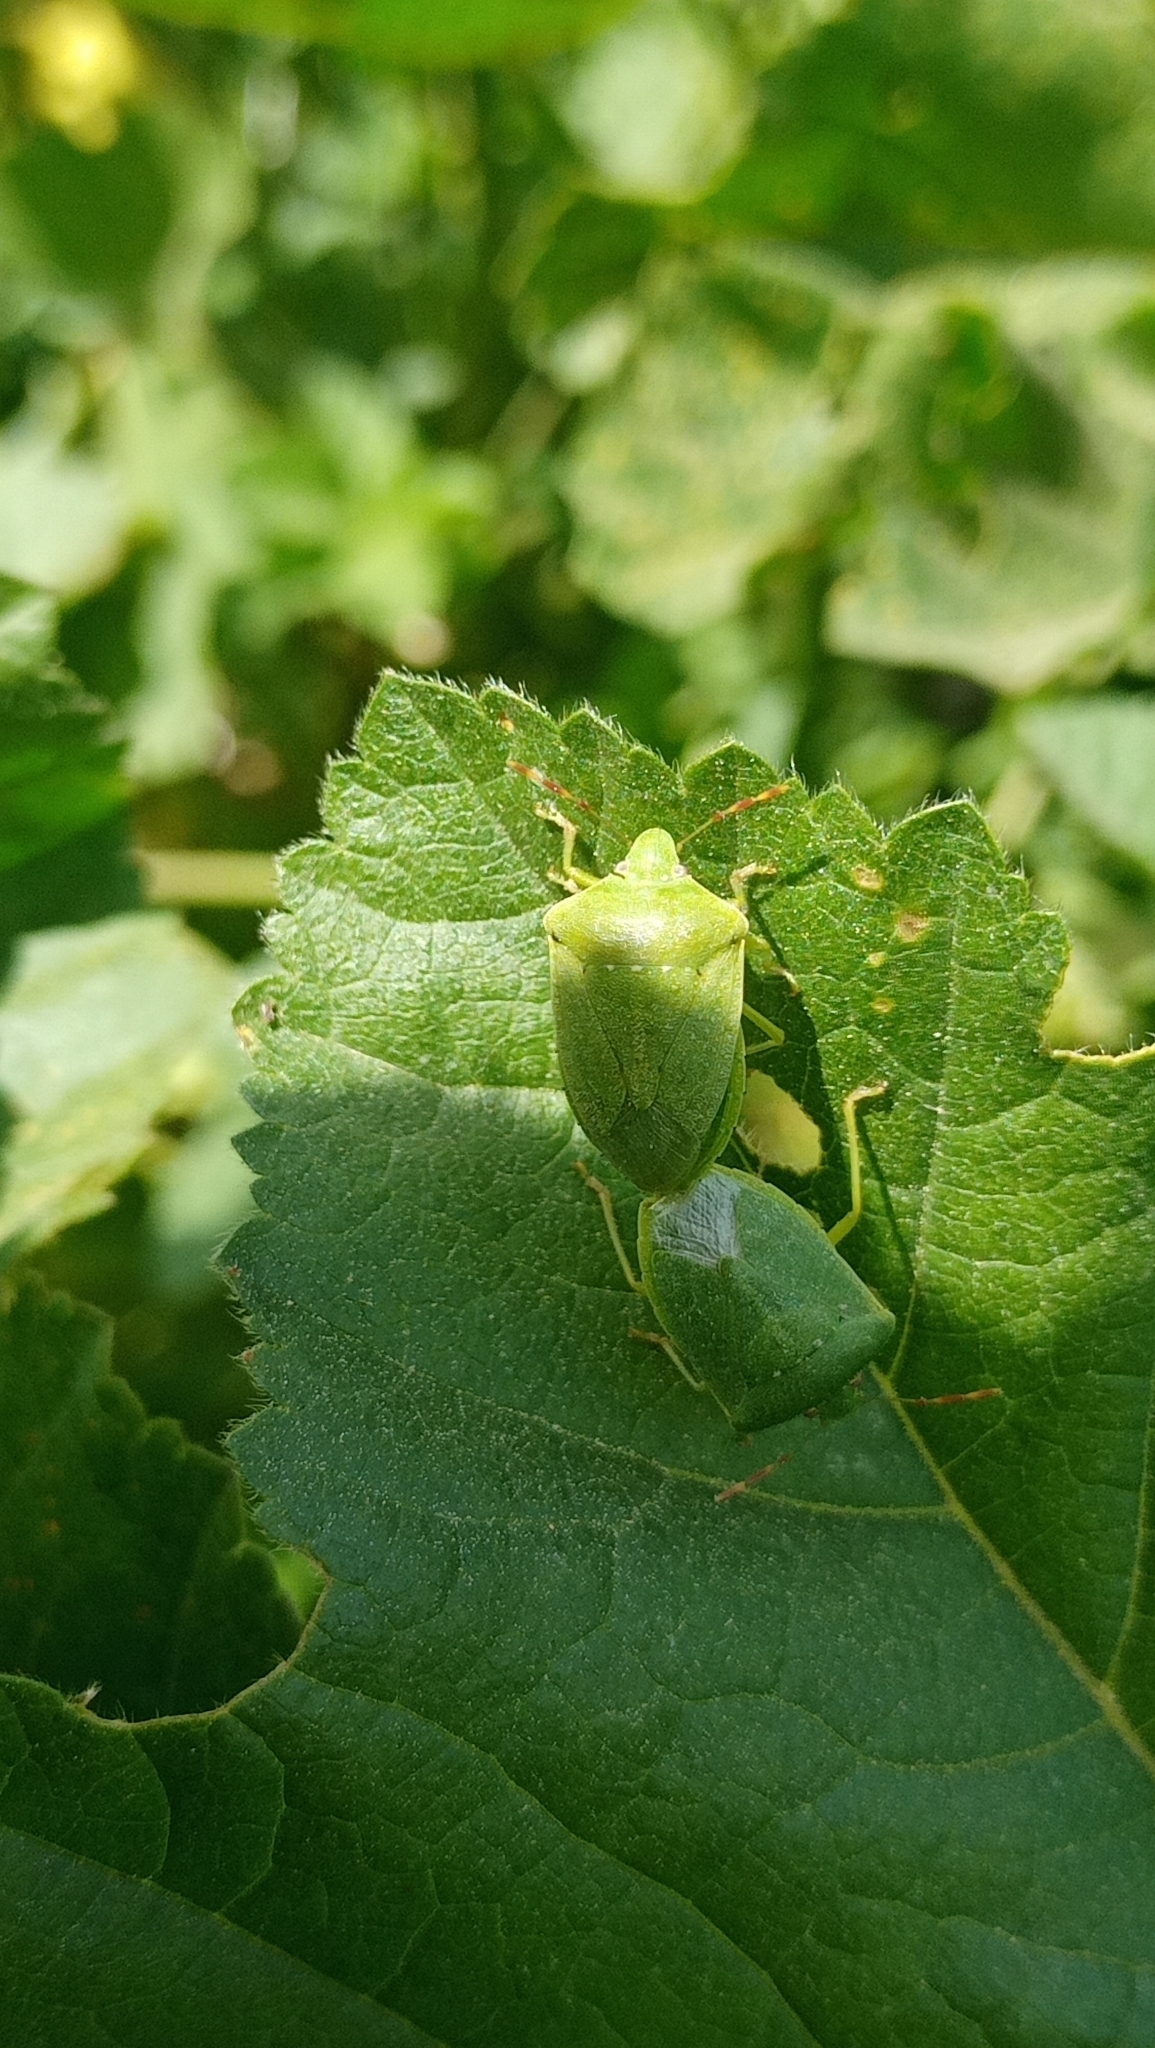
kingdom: Animalia
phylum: Arthropoda
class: Insecta
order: Hemiptera
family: Pentatomidae
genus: Nezara
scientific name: Nezara viridula
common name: Southern green stink bug
